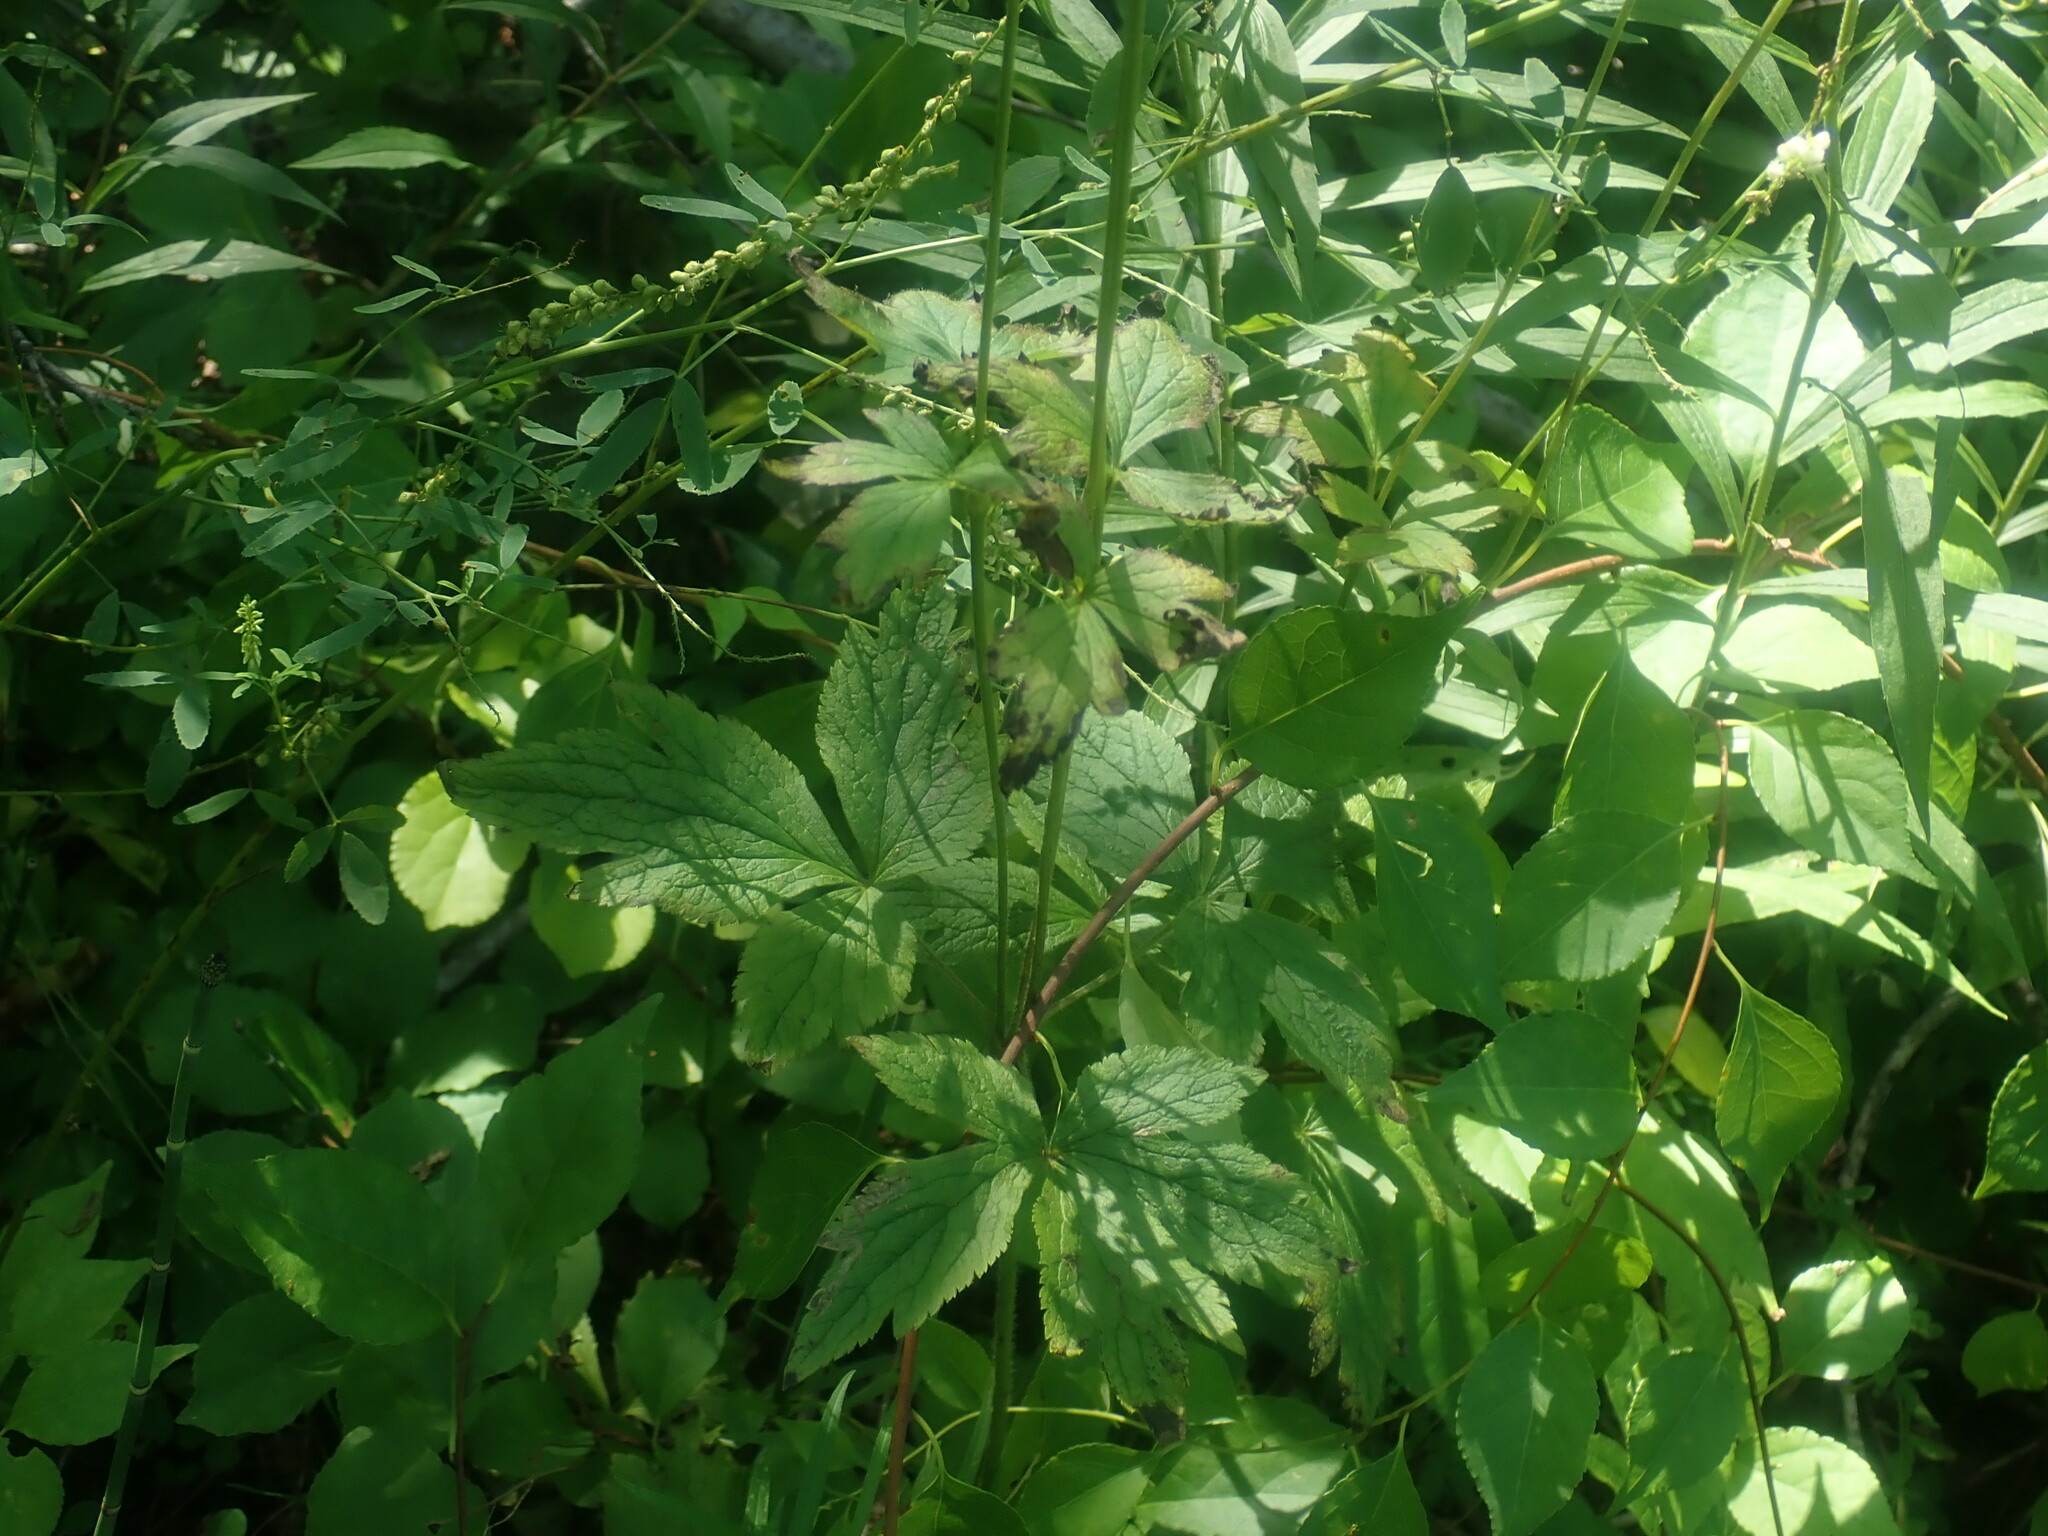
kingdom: Plantae
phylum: Tracheophyta
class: Magnoliopsida
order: Ranunculales
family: Ranunculaceae
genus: Anemone
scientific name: Anemone virginiana
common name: Tall anemone
